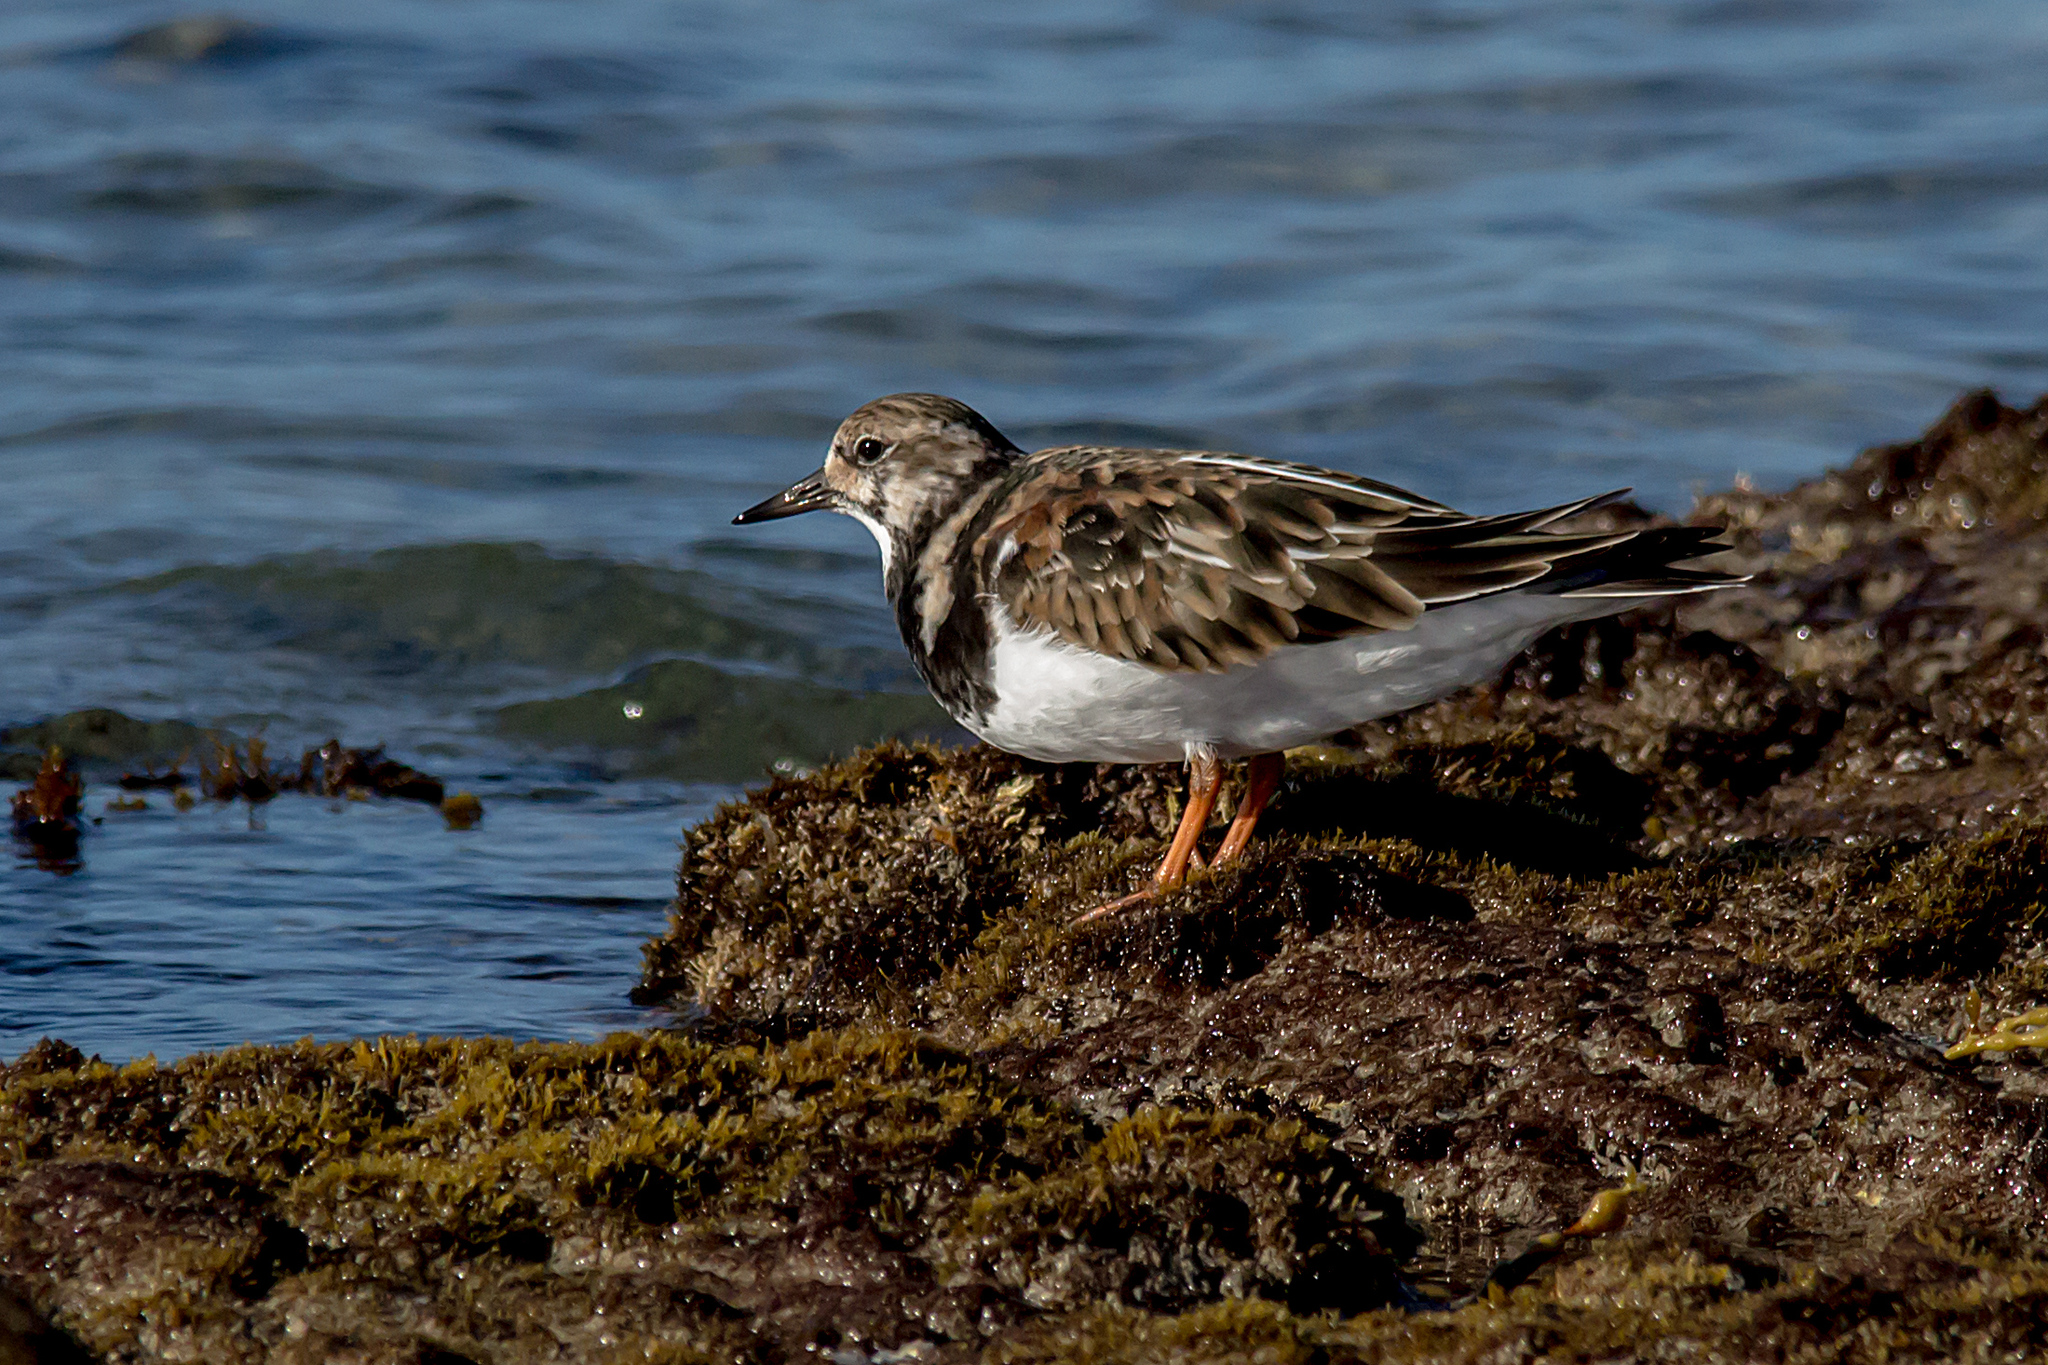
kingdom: Animalia
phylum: Chordata
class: Aves
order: Charadriiformes
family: Scolopacidae
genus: Arenaria
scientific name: Arenaria interpres
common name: Ruddy turnstone
